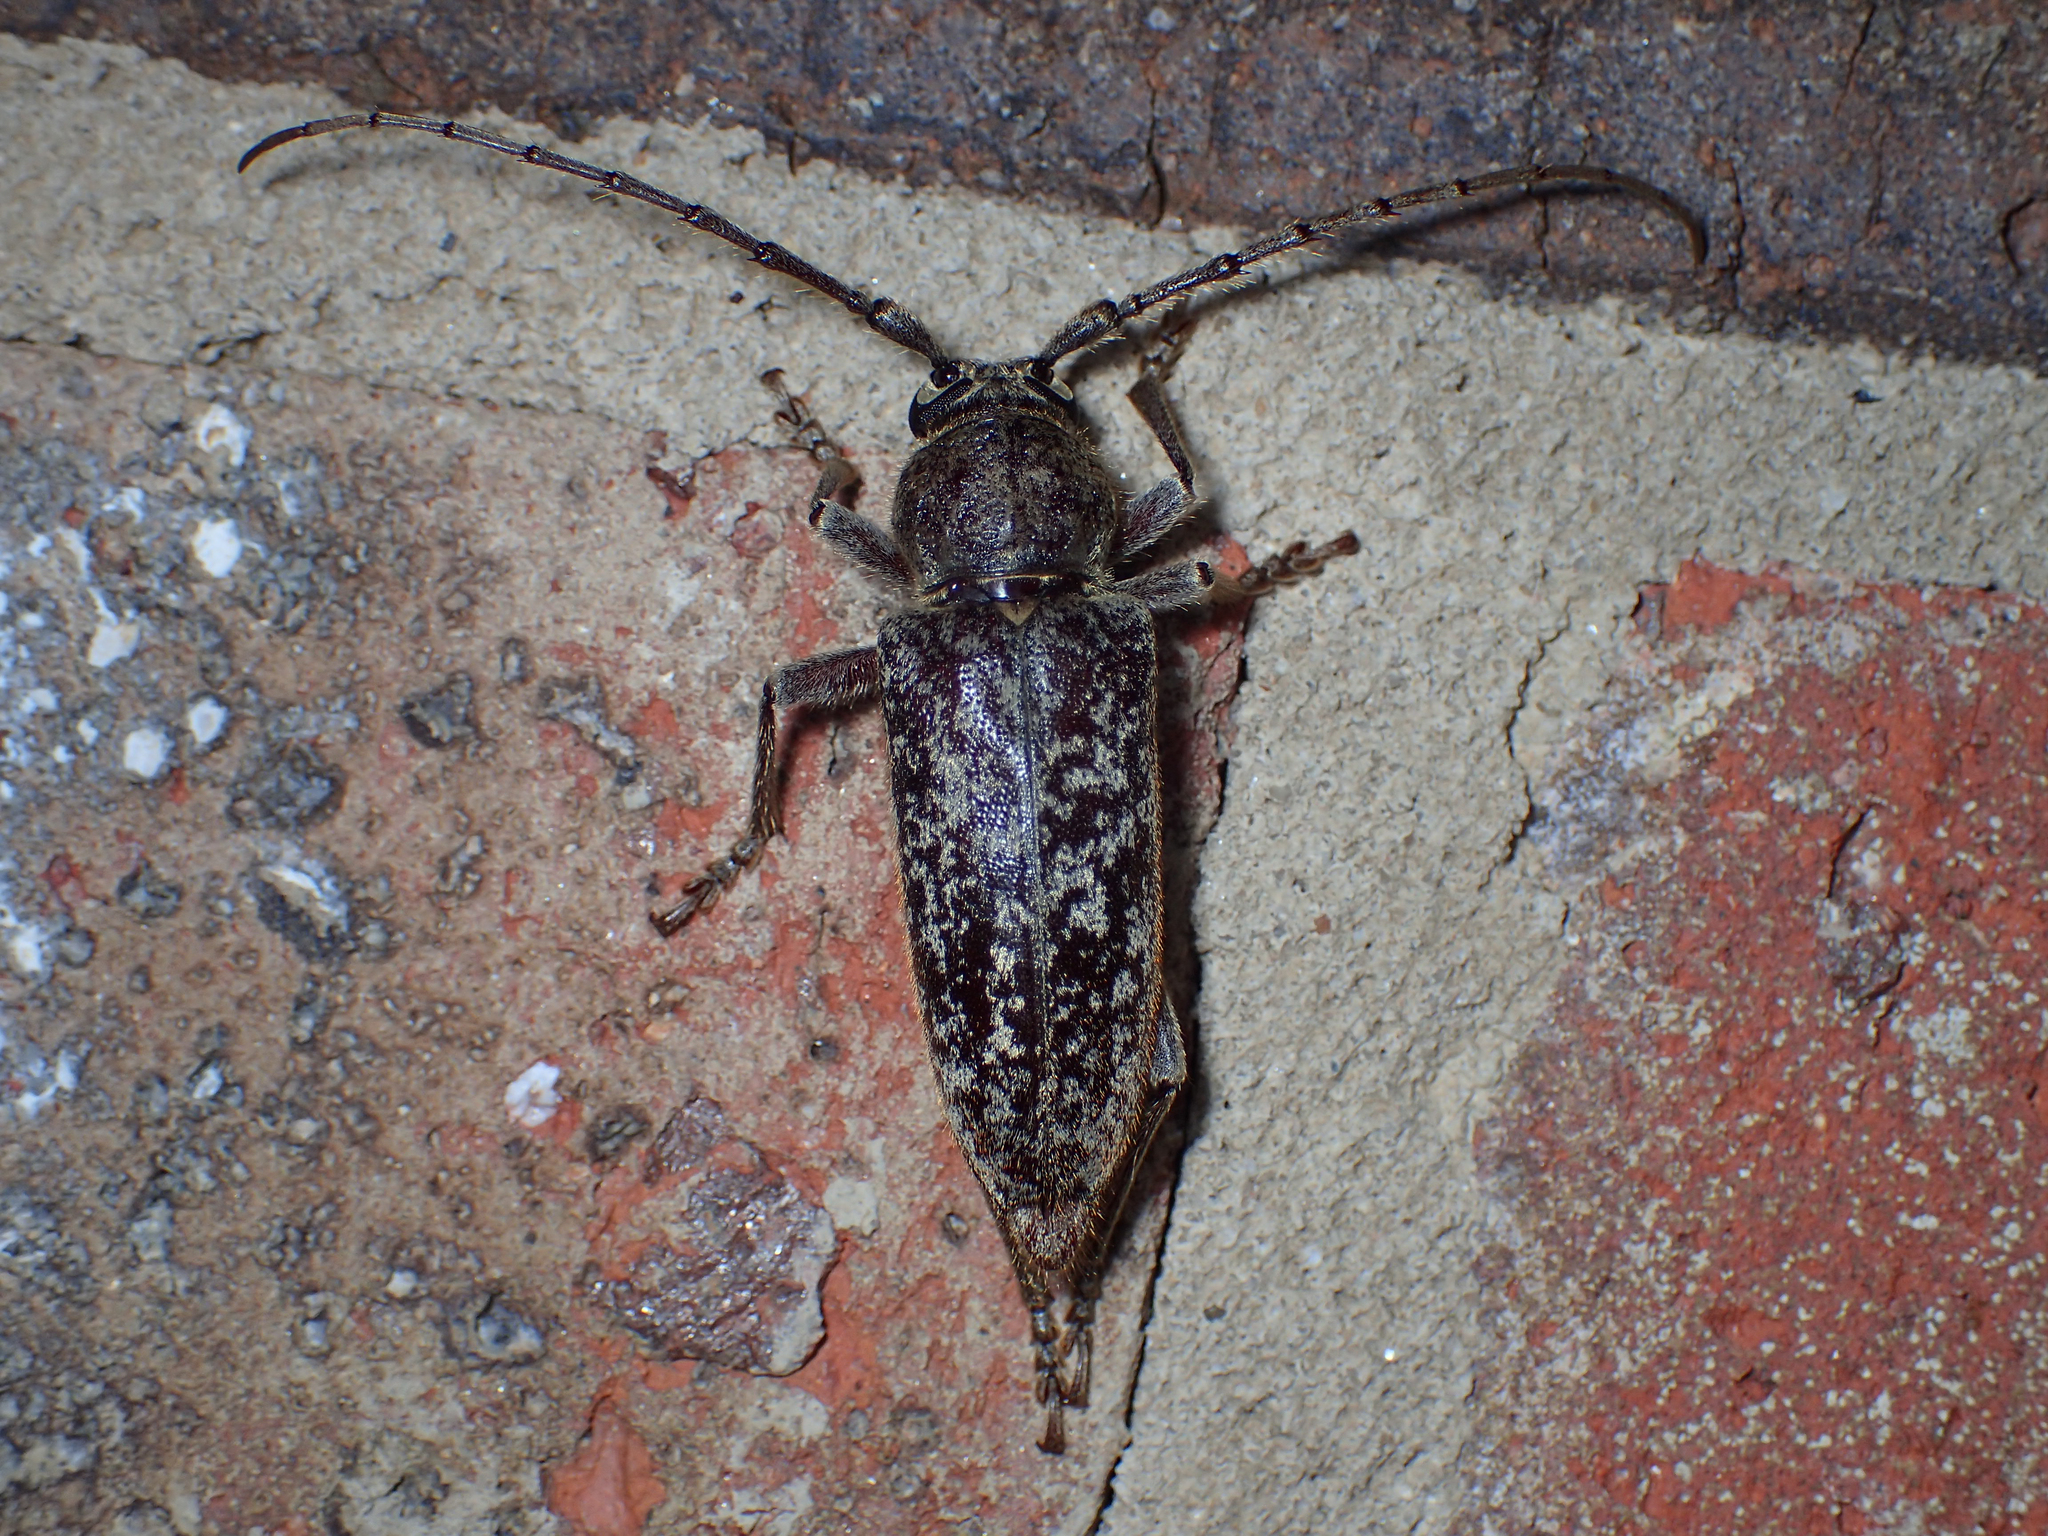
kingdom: Animalia
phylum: Arthropoda
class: Insecta
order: Coleoptera
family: Cerambycidae
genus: Enaphalodes
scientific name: Enaphalodes atomarius
